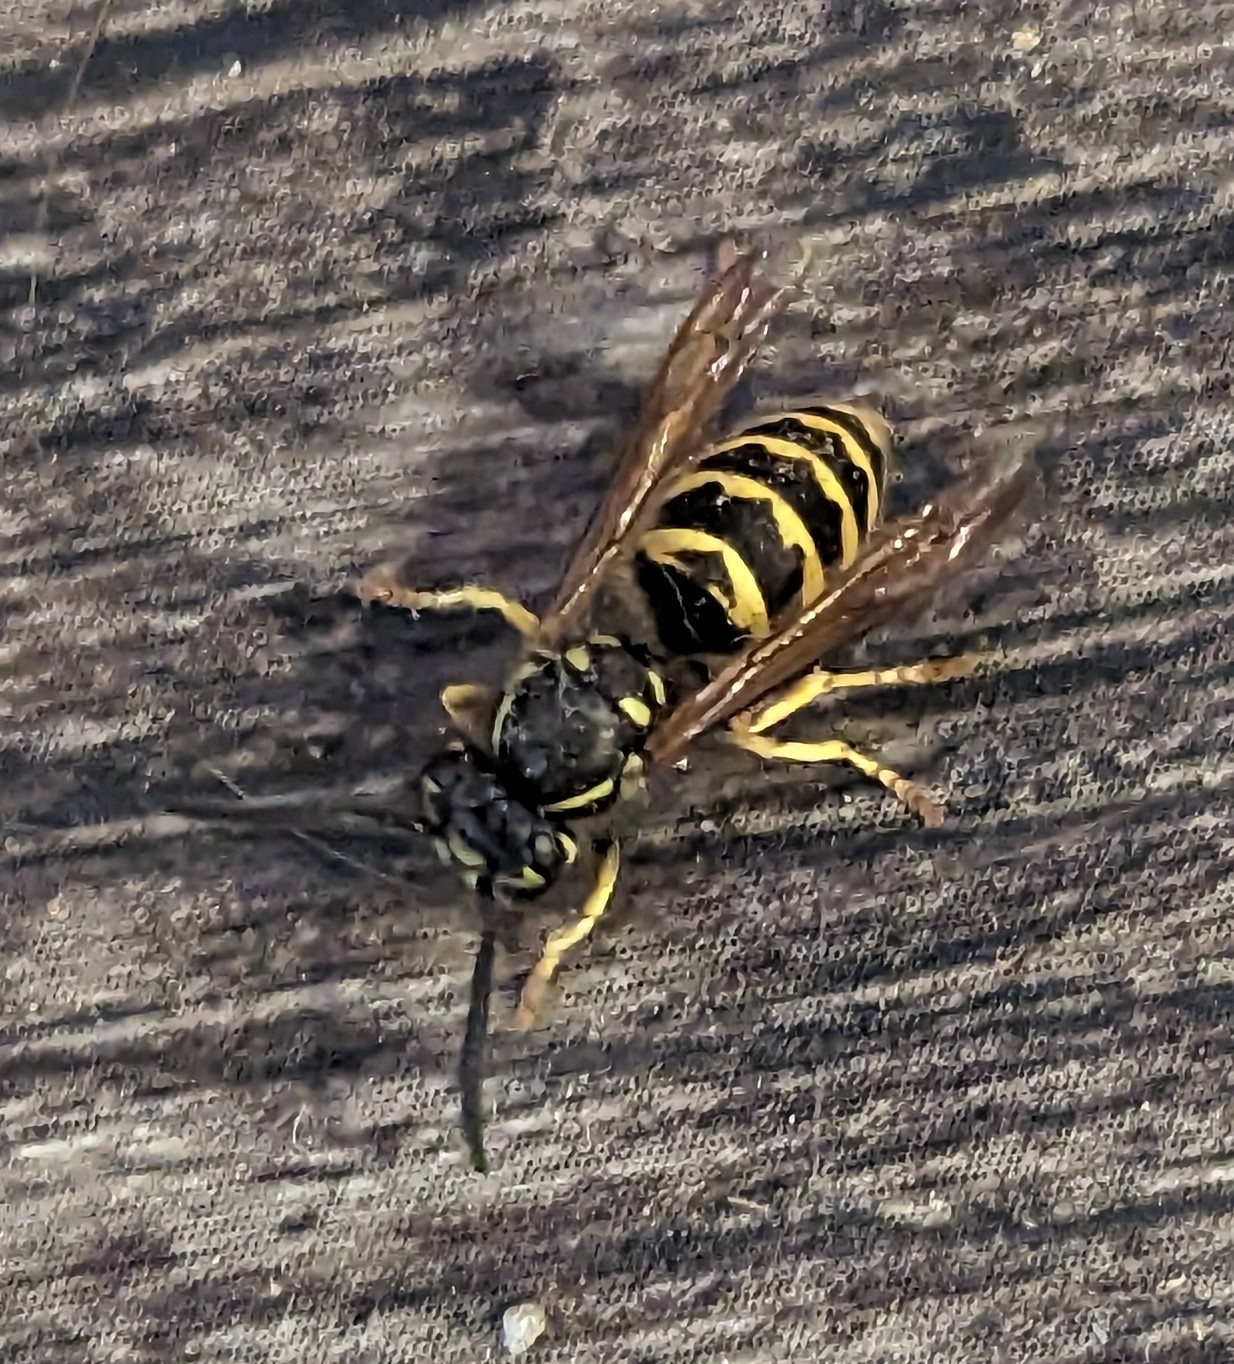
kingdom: Animalia
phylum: Arthropoda
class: Insecta
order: Hymenoptera
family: Vespidae
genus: Vespula
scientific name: Vespula alascensis
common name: Alaska yellowjacket
